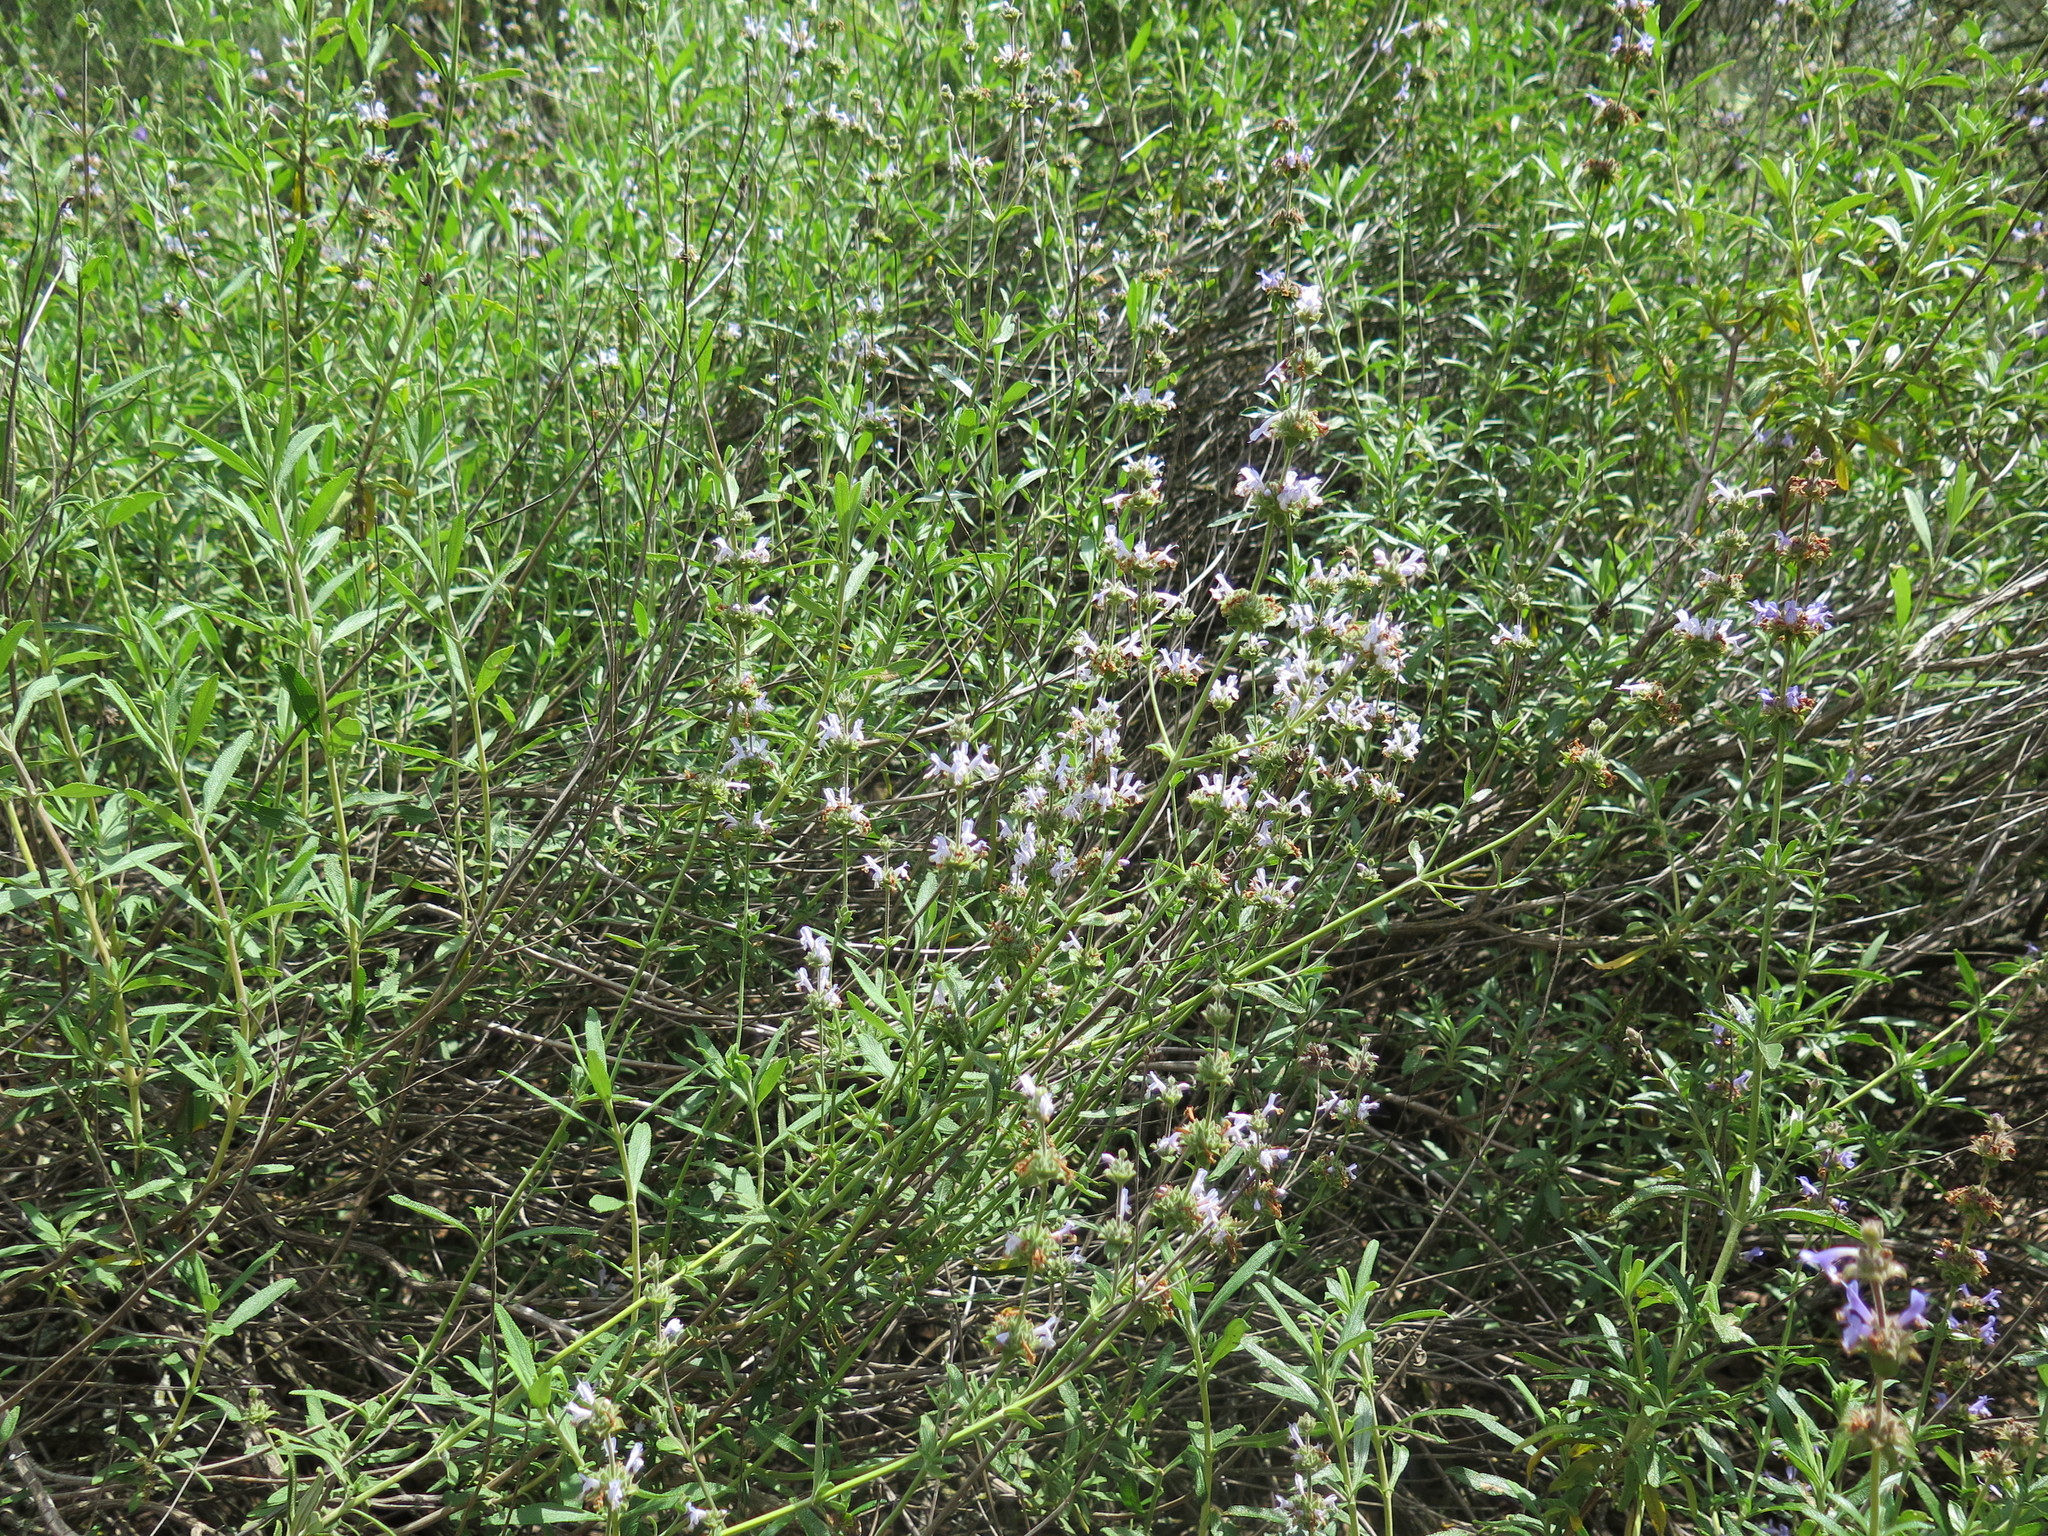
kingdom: Plantae
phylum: Tracheophyta
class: Magnoliopsida
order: Lamiales
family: Lamiaceae
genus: Salvia
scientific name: Salvia mellifera
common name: Black sage
